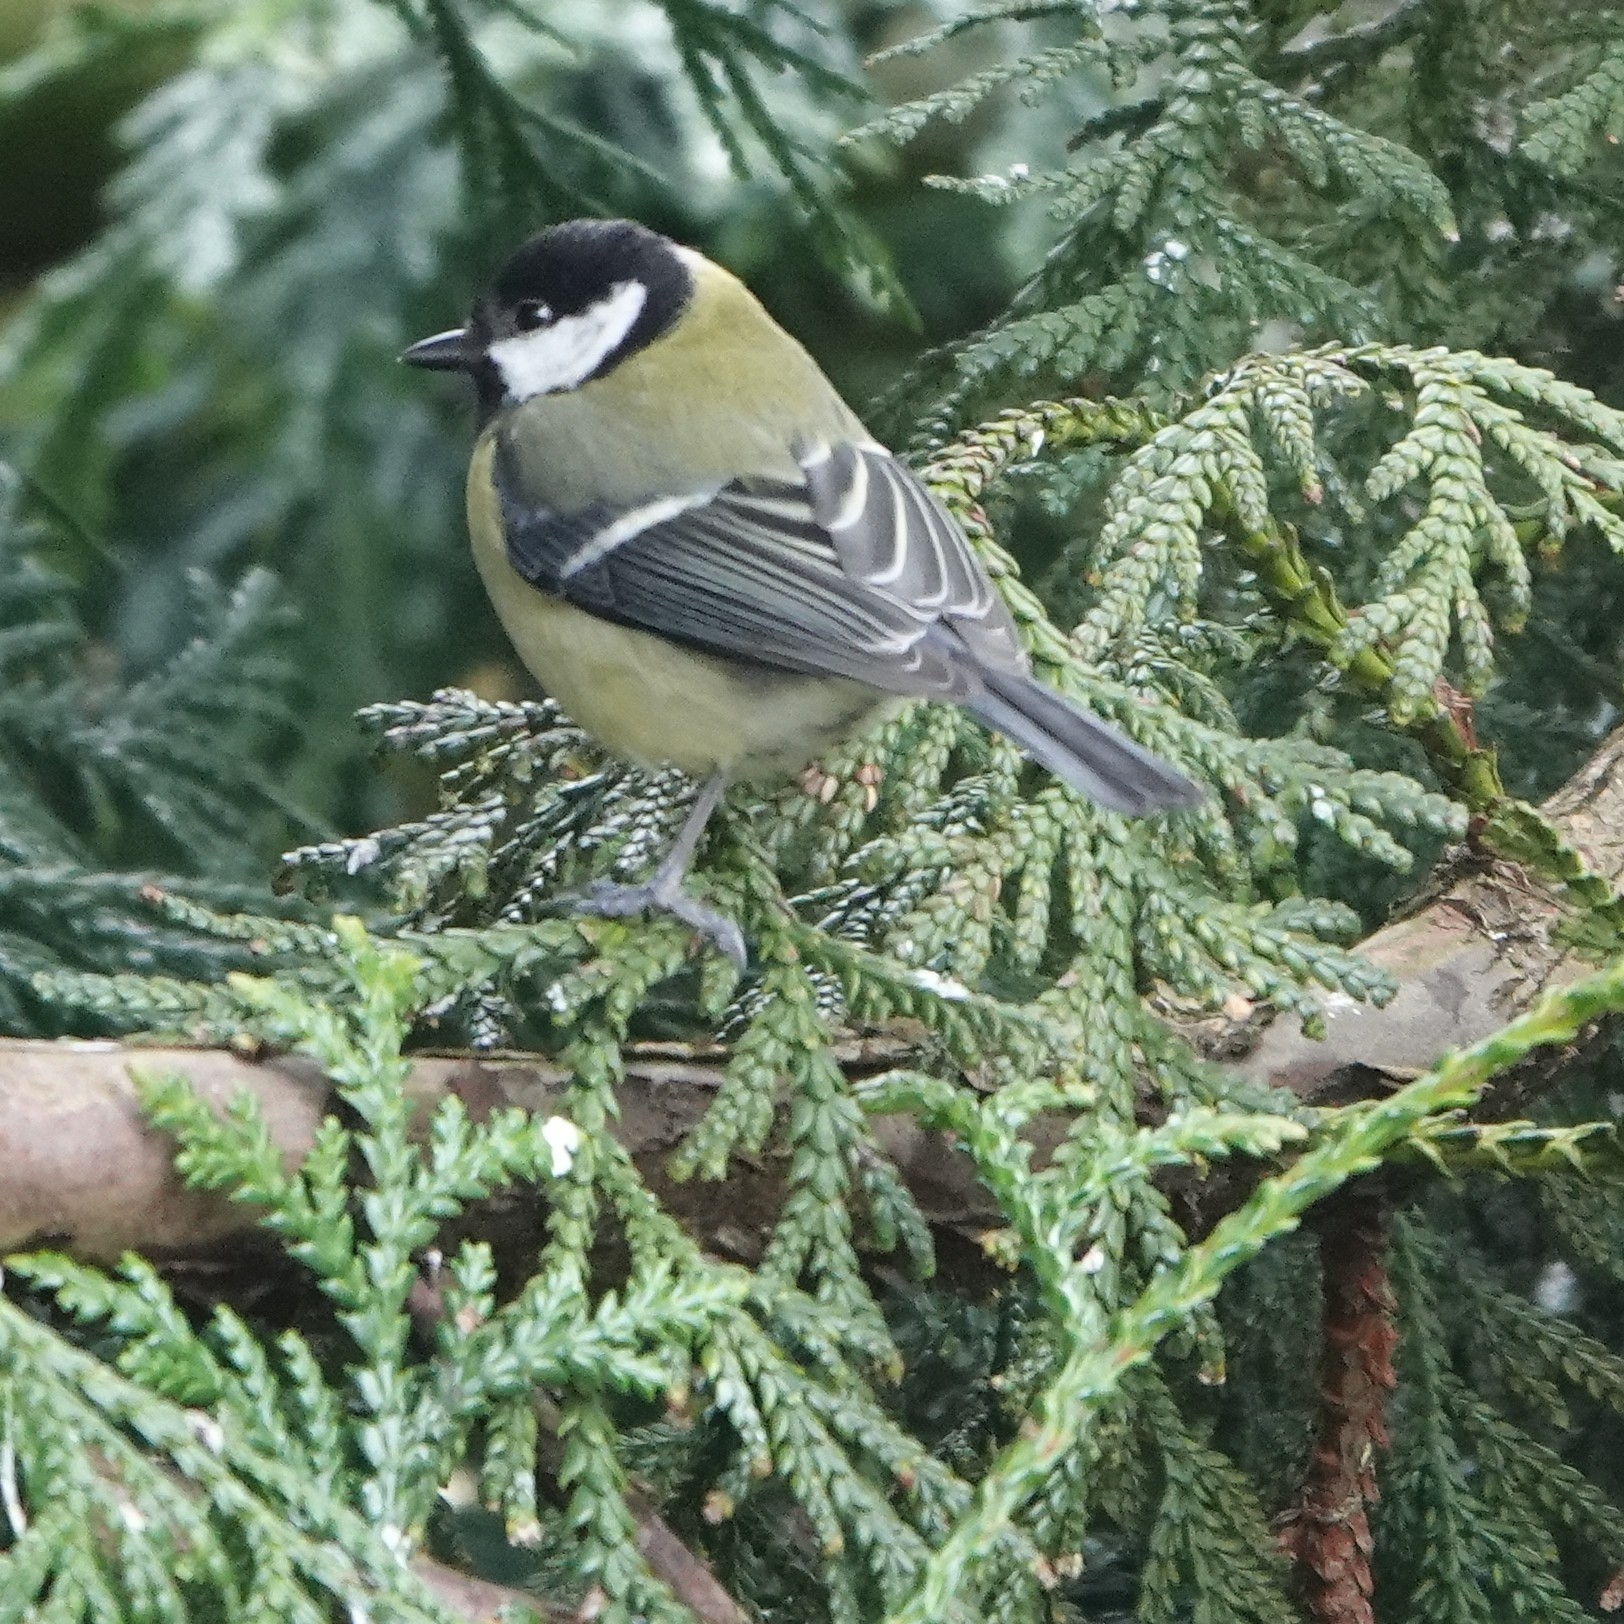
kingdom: Animalia
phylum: Chordata
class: Aves
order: Passeriformes
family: Paridae
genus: Parus
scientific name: Parus major
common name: Great tit
